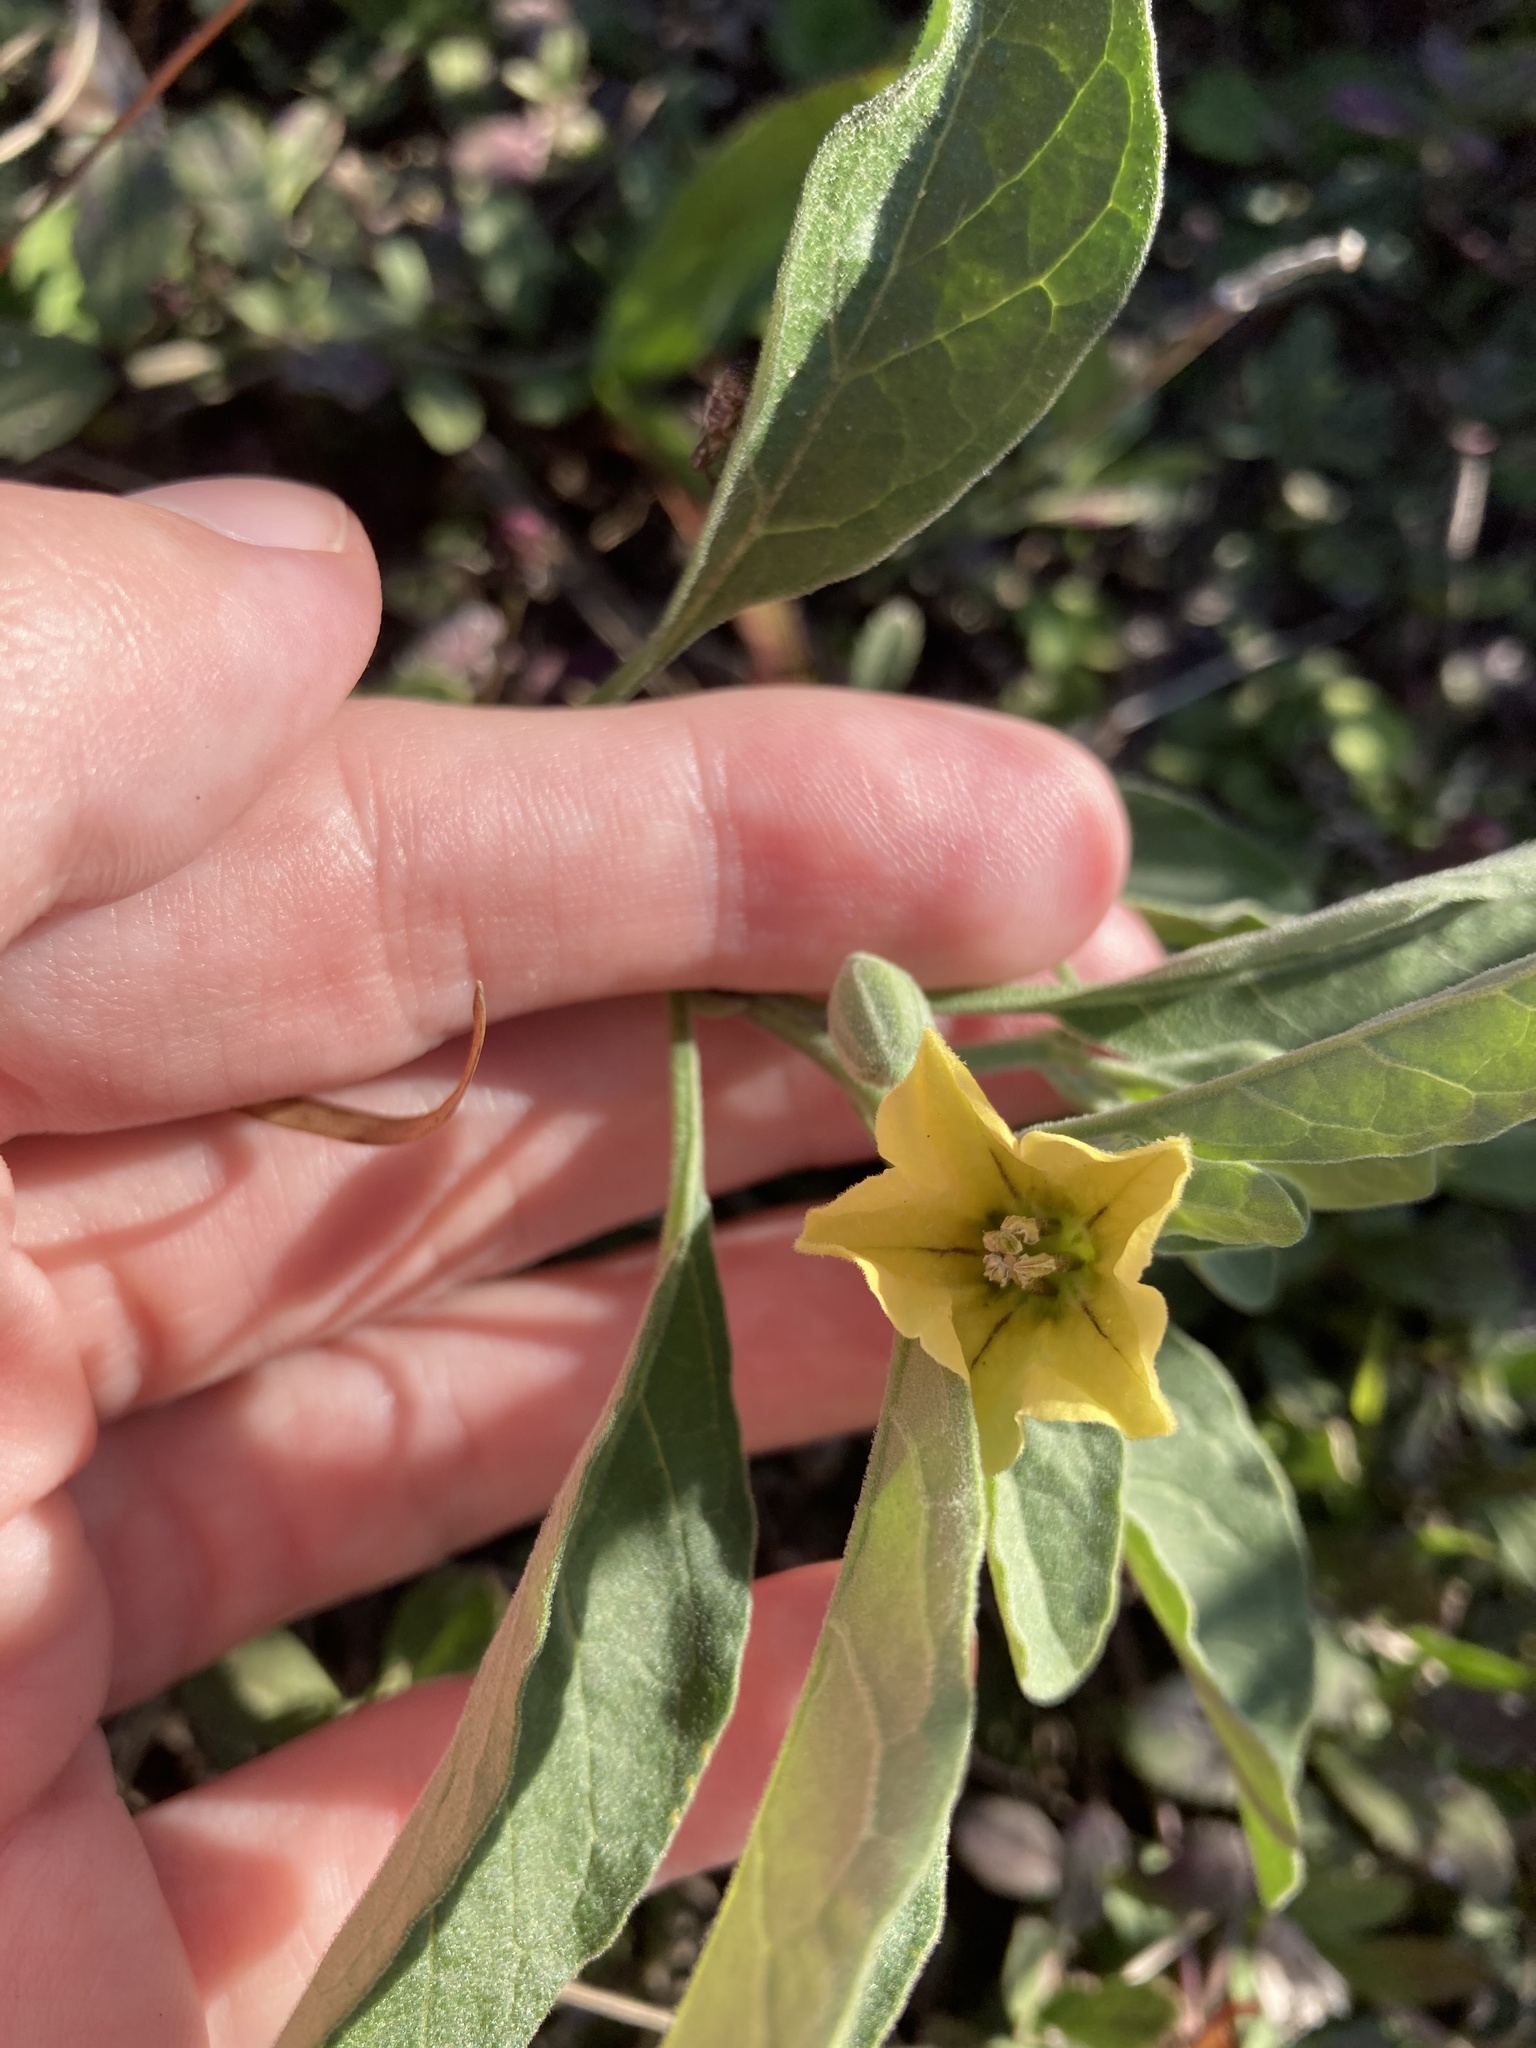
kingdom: Plantae
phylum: Tracheophyta
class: Magnoliopsida
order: Solanales
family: Solanaceae
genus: Physalis
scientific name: Physalis walteri
